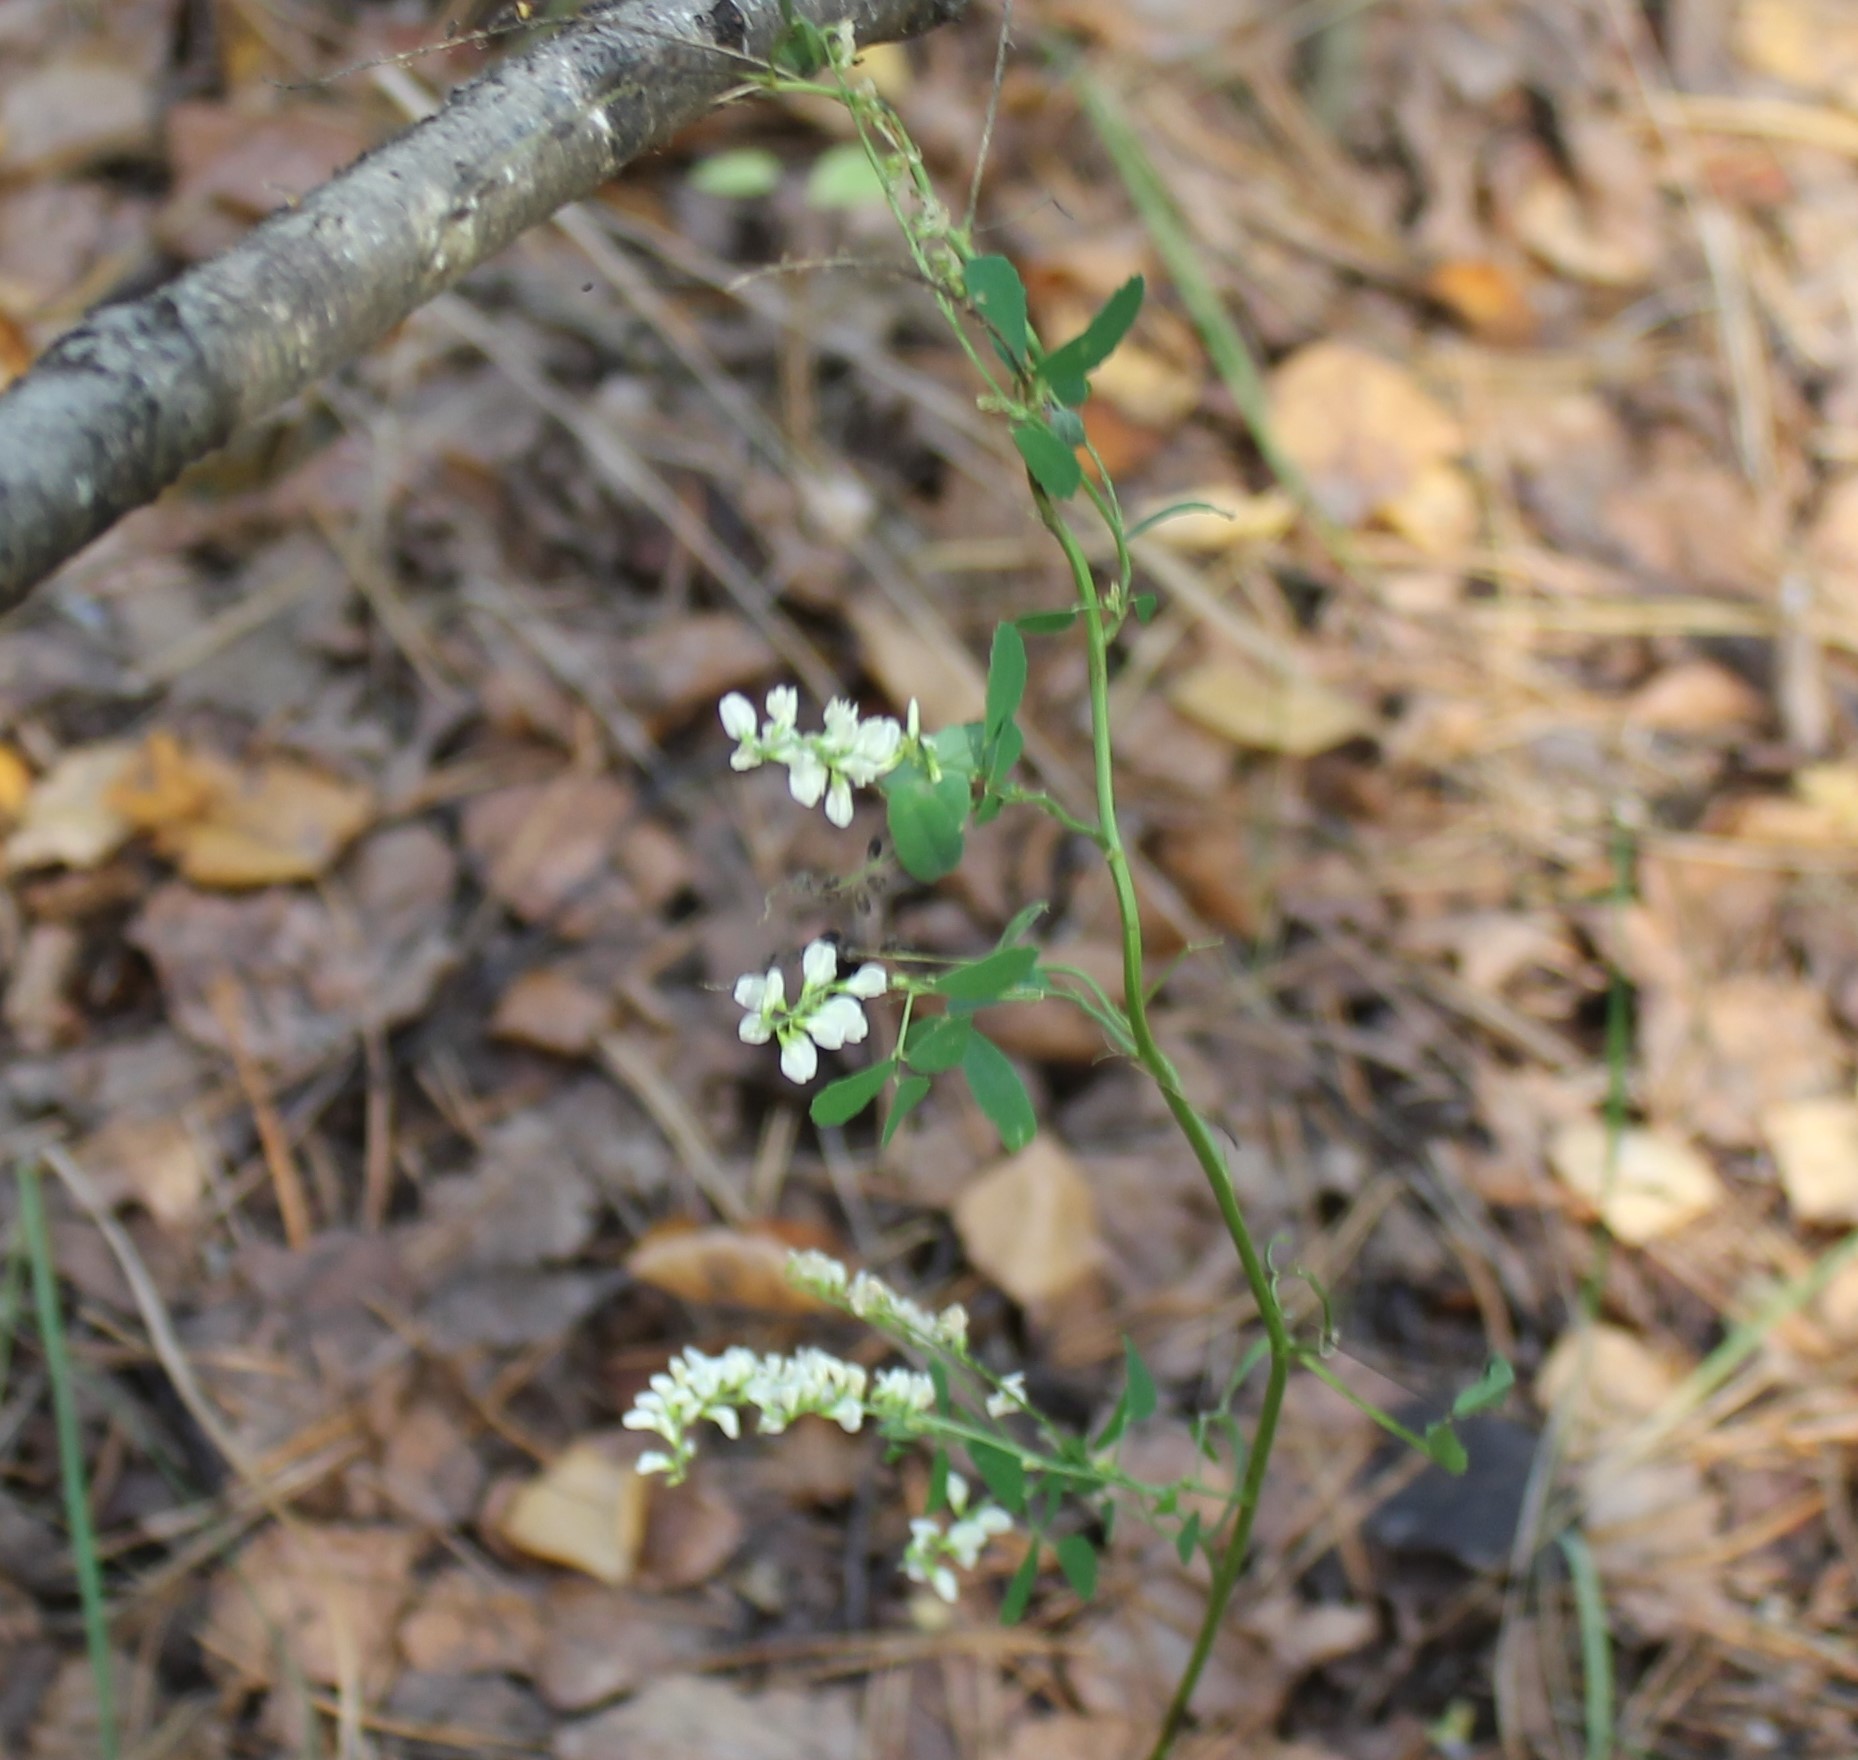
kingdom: Plantae
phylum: Tracheophyta
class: Magnoliopsida
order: Fabales
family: Fabaceae
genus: Melilotus
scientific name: Melilotus albus
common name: White melilot
